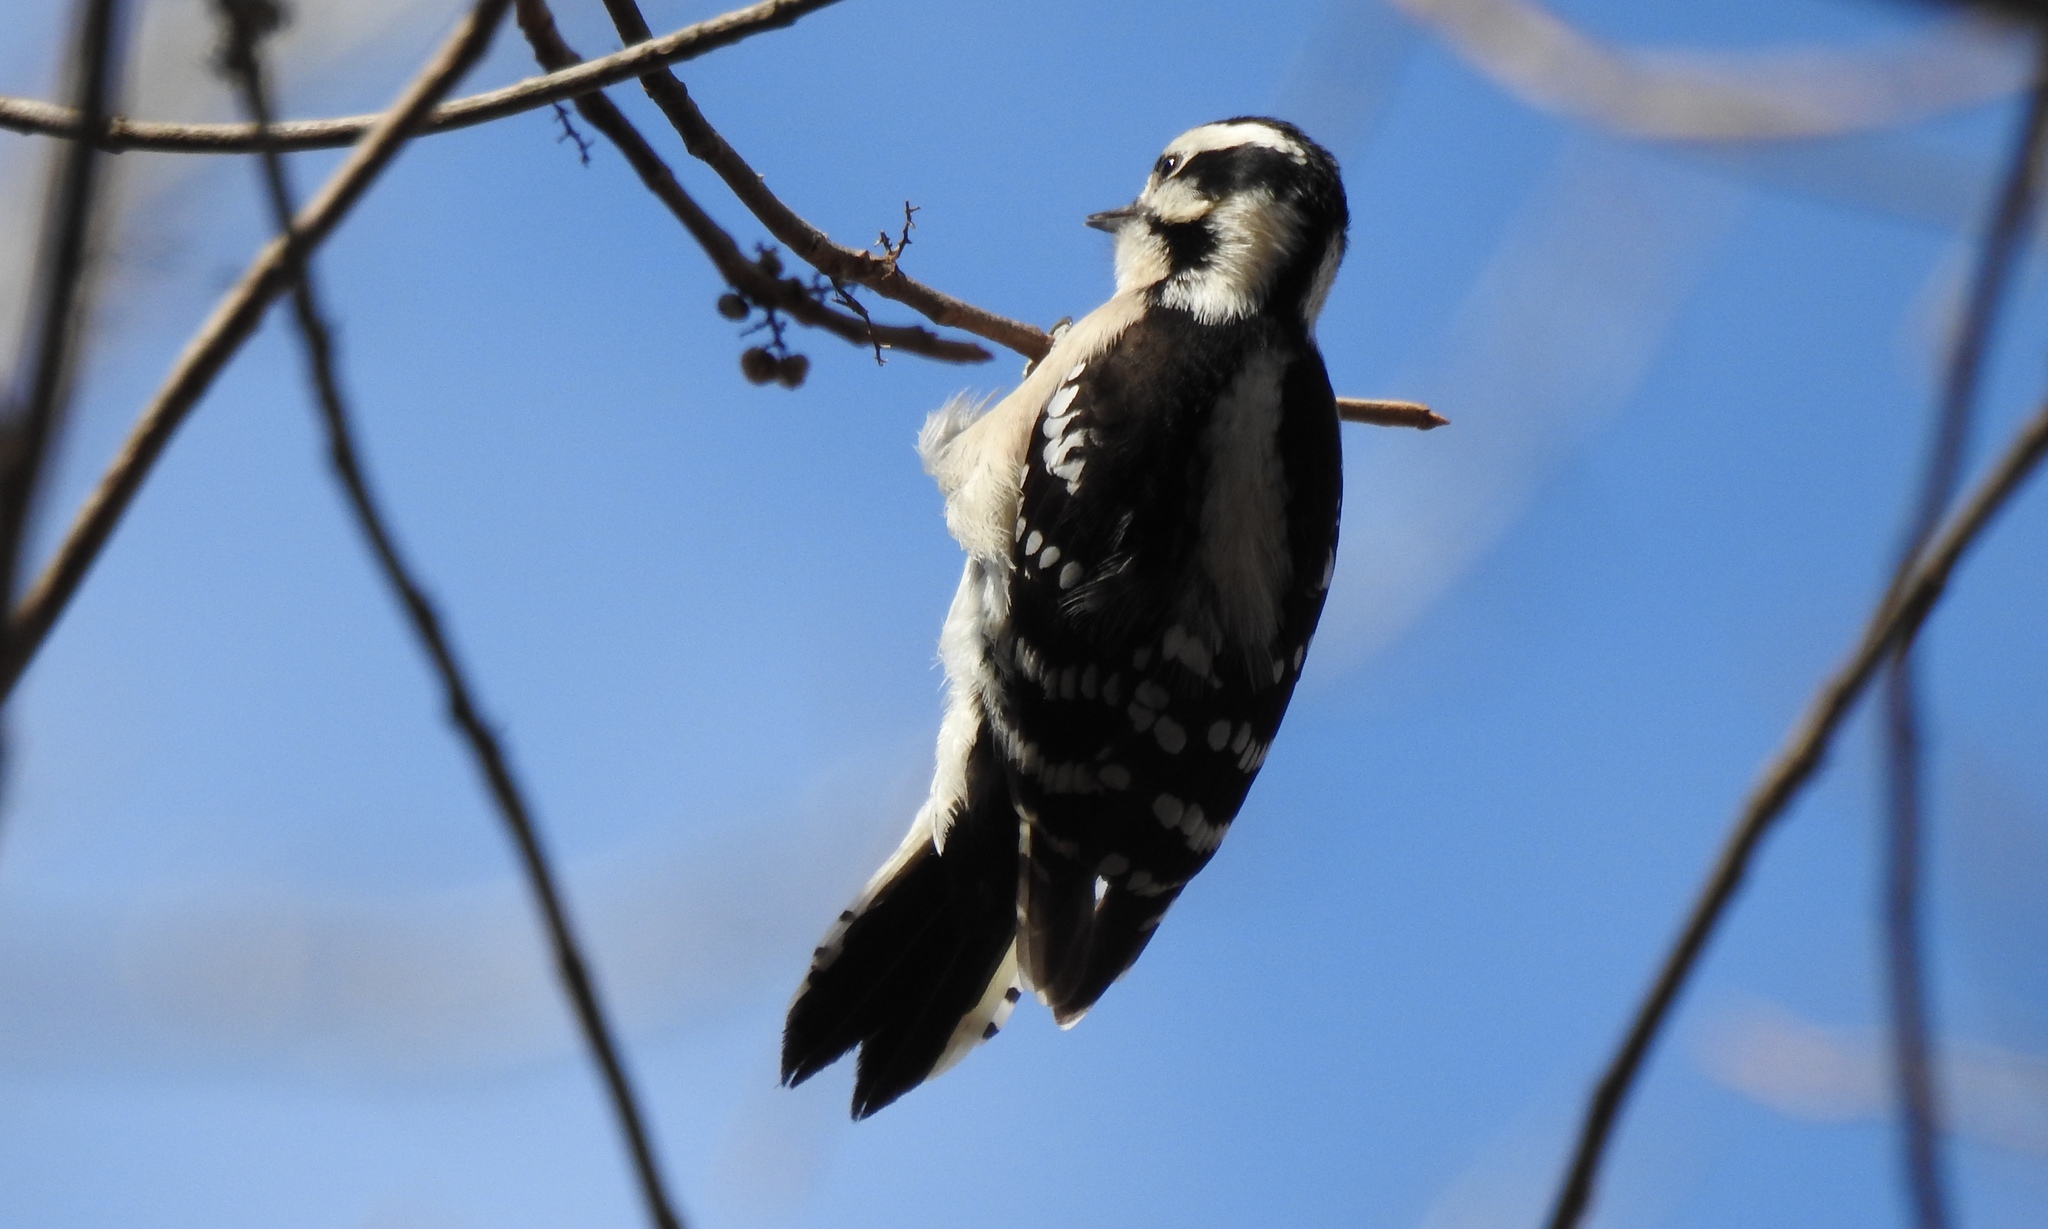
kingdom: Animalia
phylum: Chordata
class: Aves
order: Piciformes
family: Picidae
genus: Dryobates
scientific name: Dryobates pubescens
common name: Downy woodpecker
